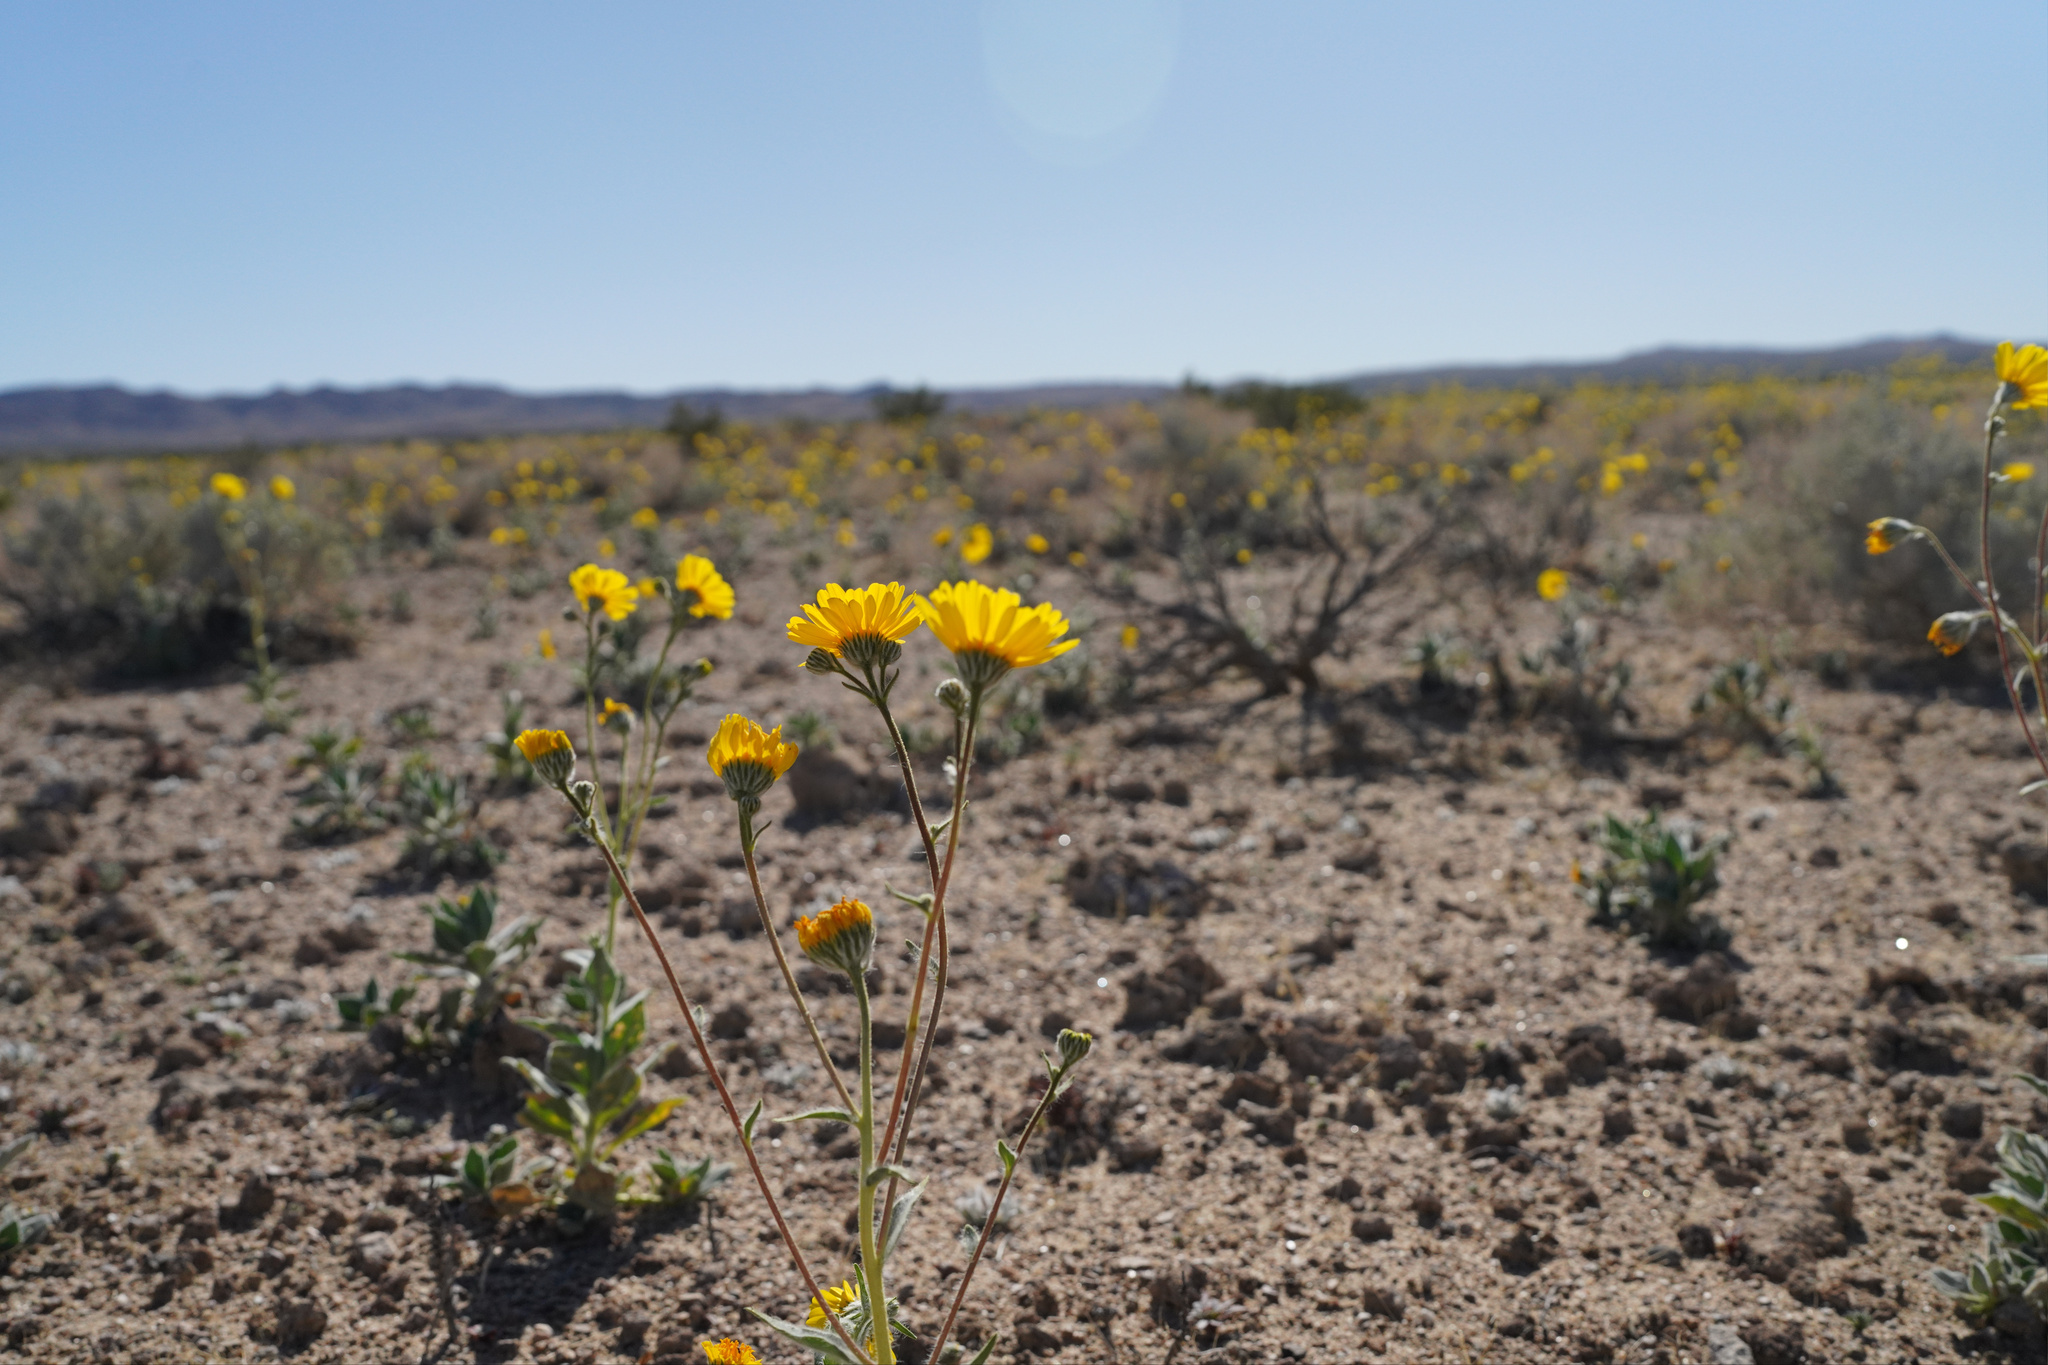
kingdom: Plantae
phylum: Tracheophyta
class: Magnoliopsida
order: Asterales
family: Asteraceae
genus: Geraea
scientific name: Geraea canescens
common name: Desert-gold
